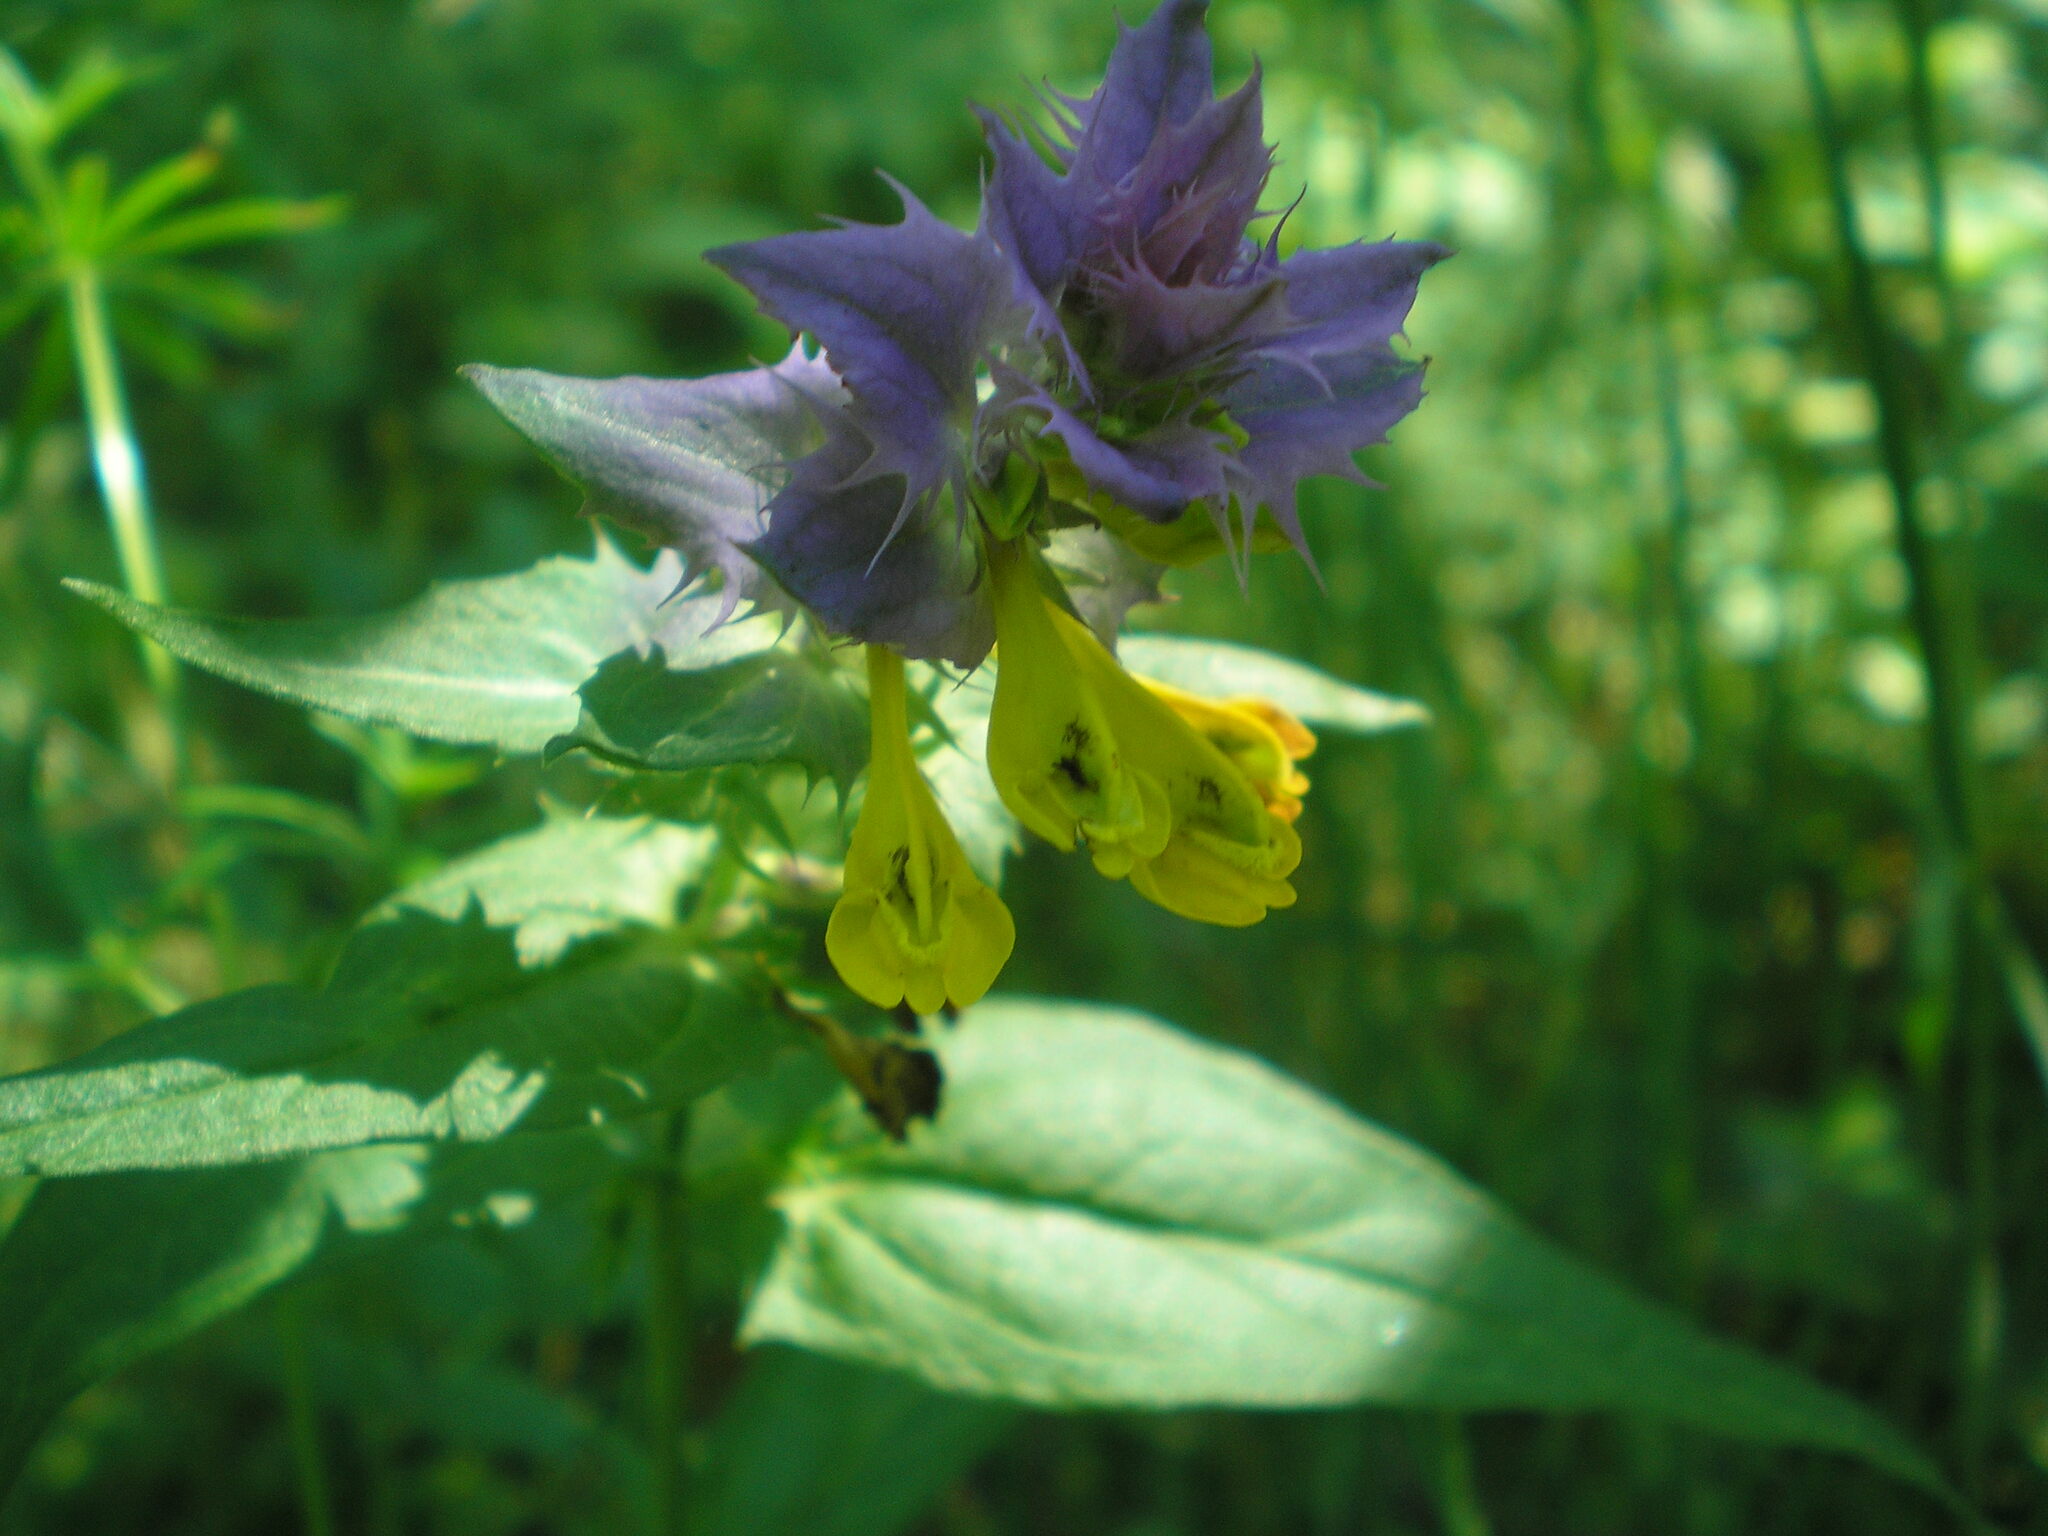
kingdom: Plantae
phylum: Tracheophyta
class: Magnoliopsida
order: Lamiales
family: Orobanchaceae
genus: Melampyrum
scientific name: Melampyrum nemorosum
